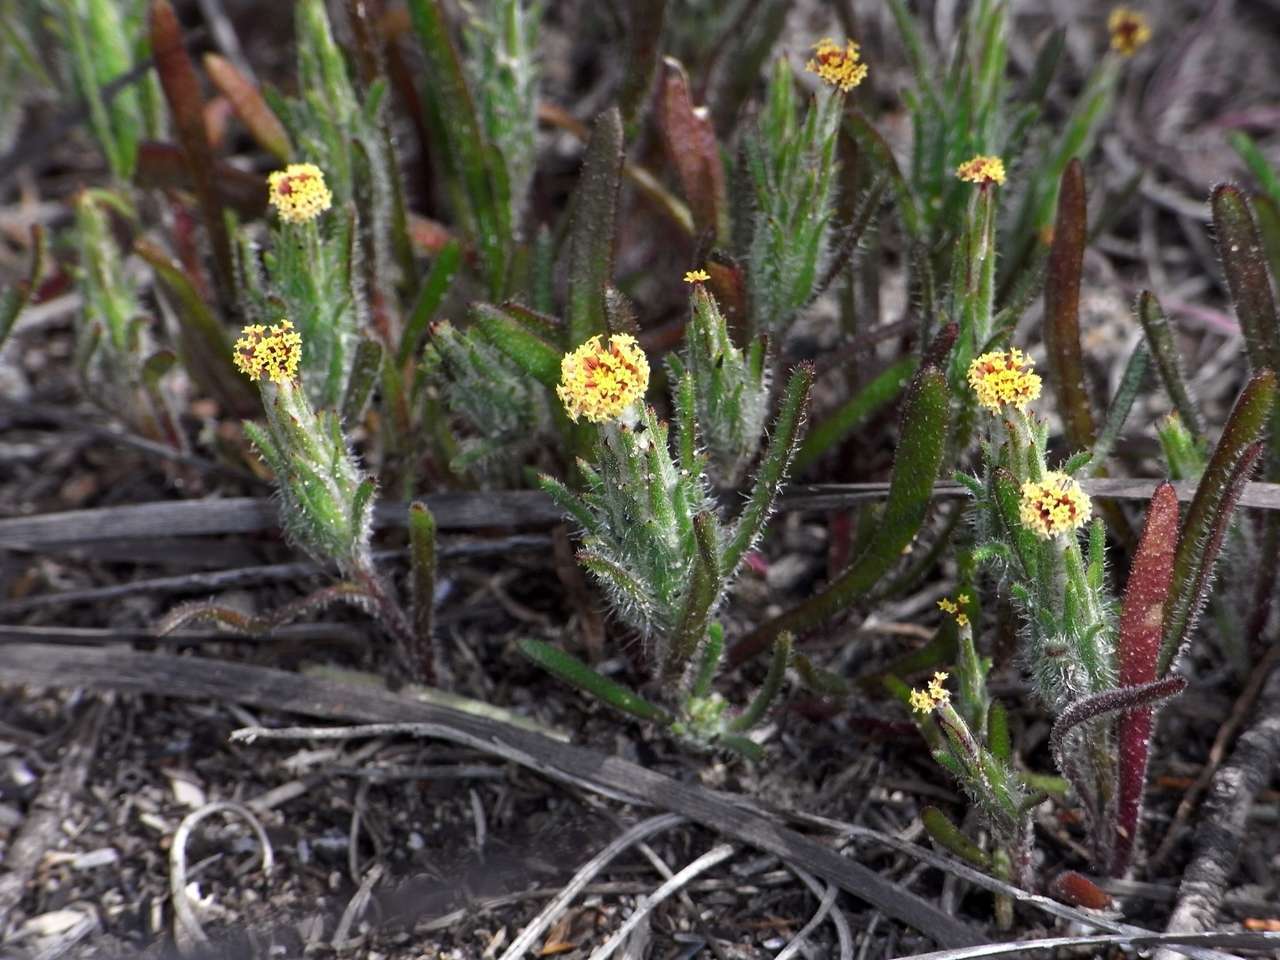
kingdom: Plantae
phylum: Tracheophyta
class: Magnoliopsida
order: Asterales
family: Asteraceae
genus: Podotheca
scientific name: Podotheca angustifolia
